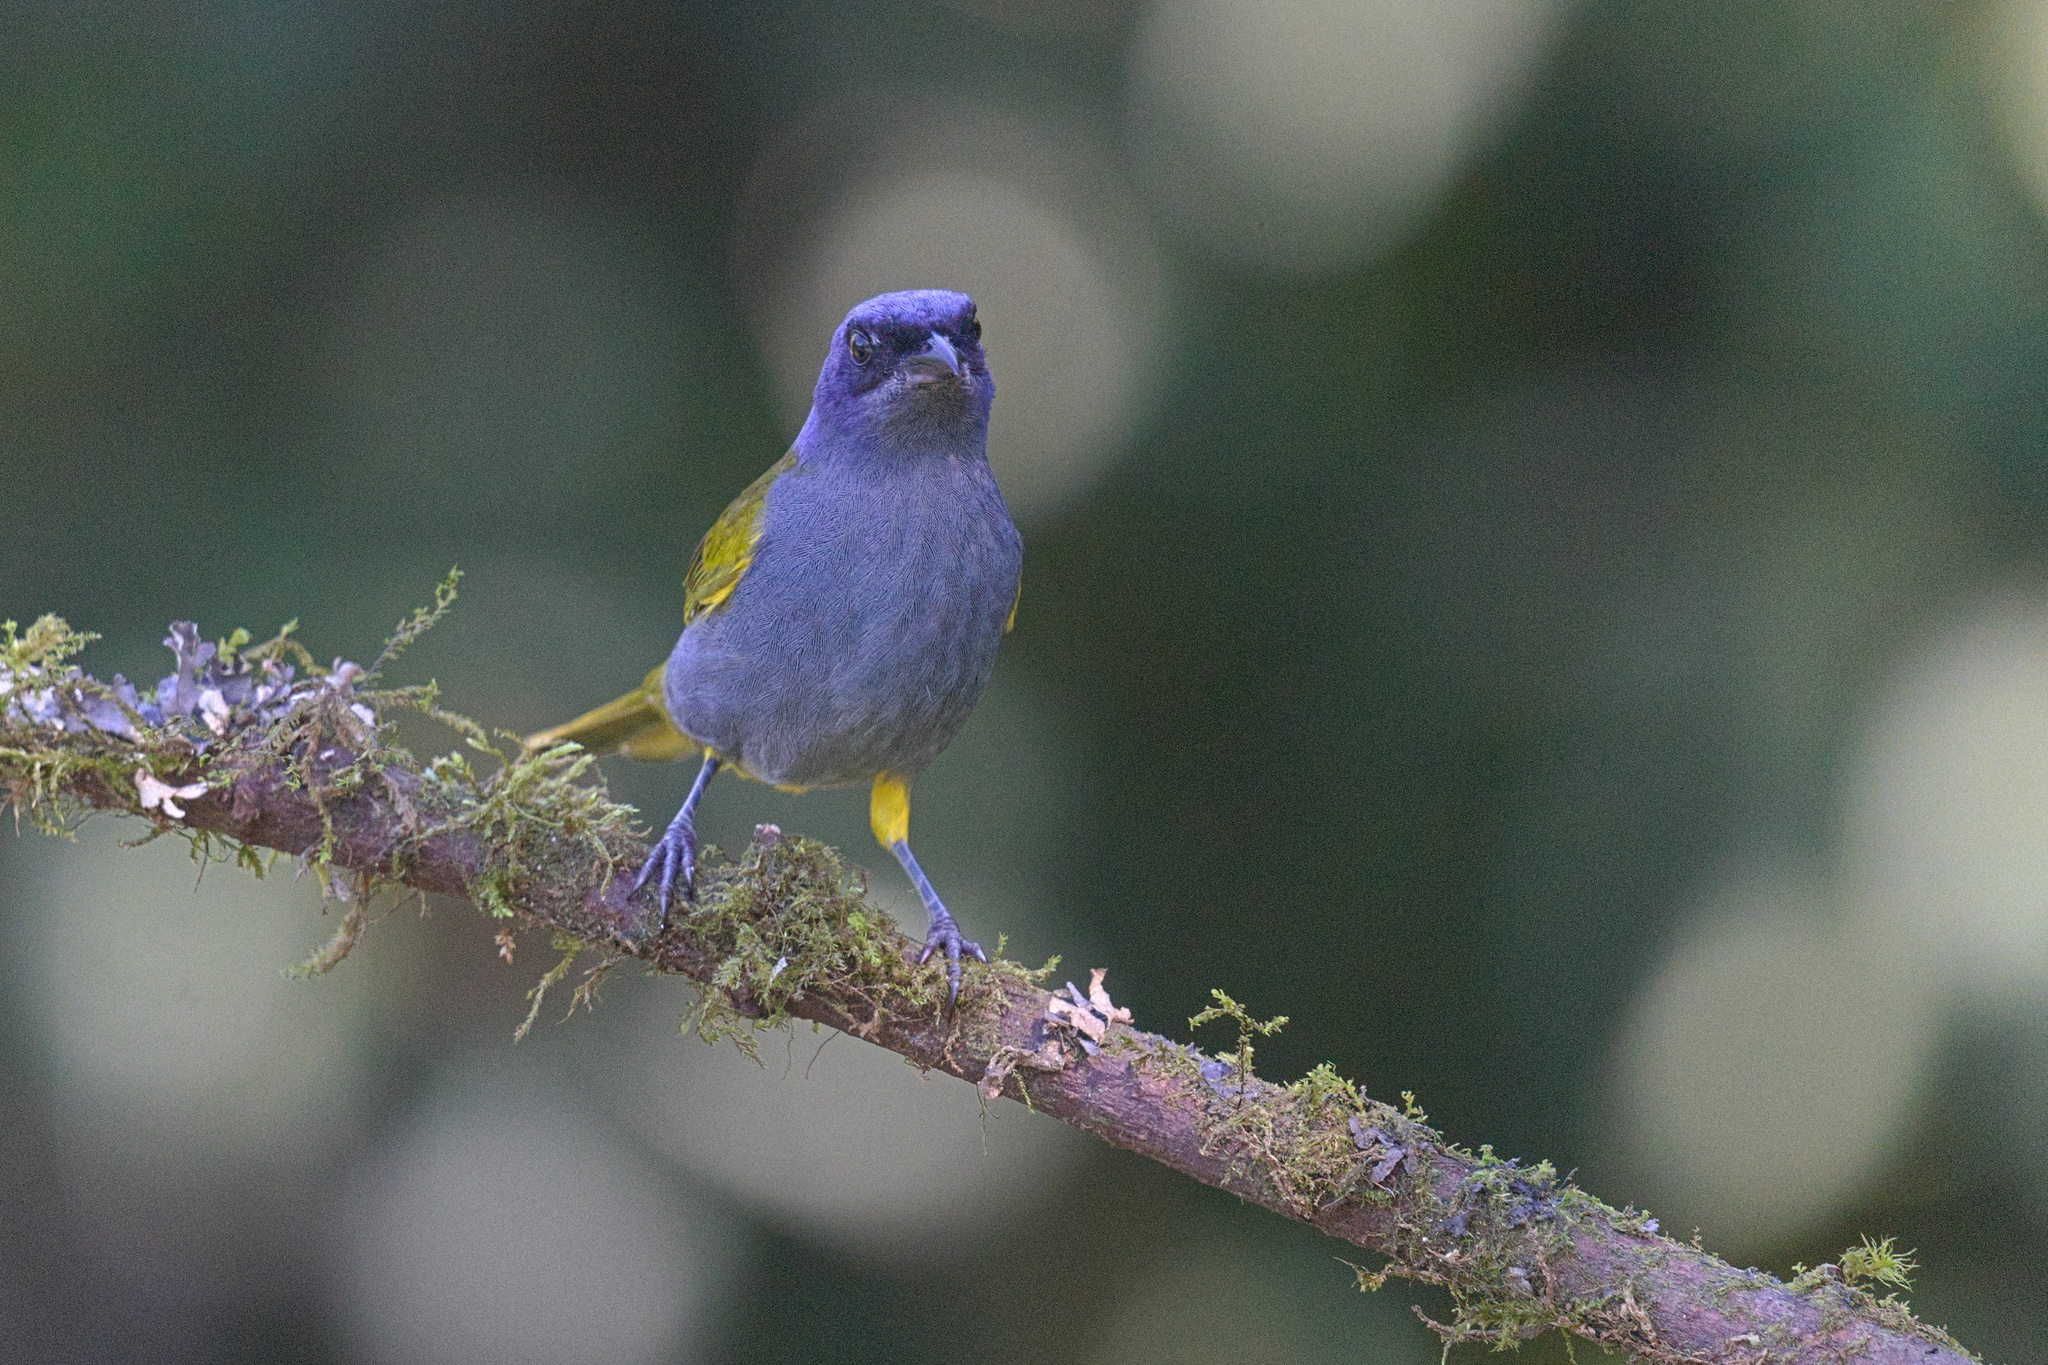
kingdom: Animalia
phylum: Chordata
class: Aves
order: Passeriformes
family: Thraupidae
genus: Sporathraupis
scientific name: Sporathraupis cyanocephala
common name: Blue-capped tanager
